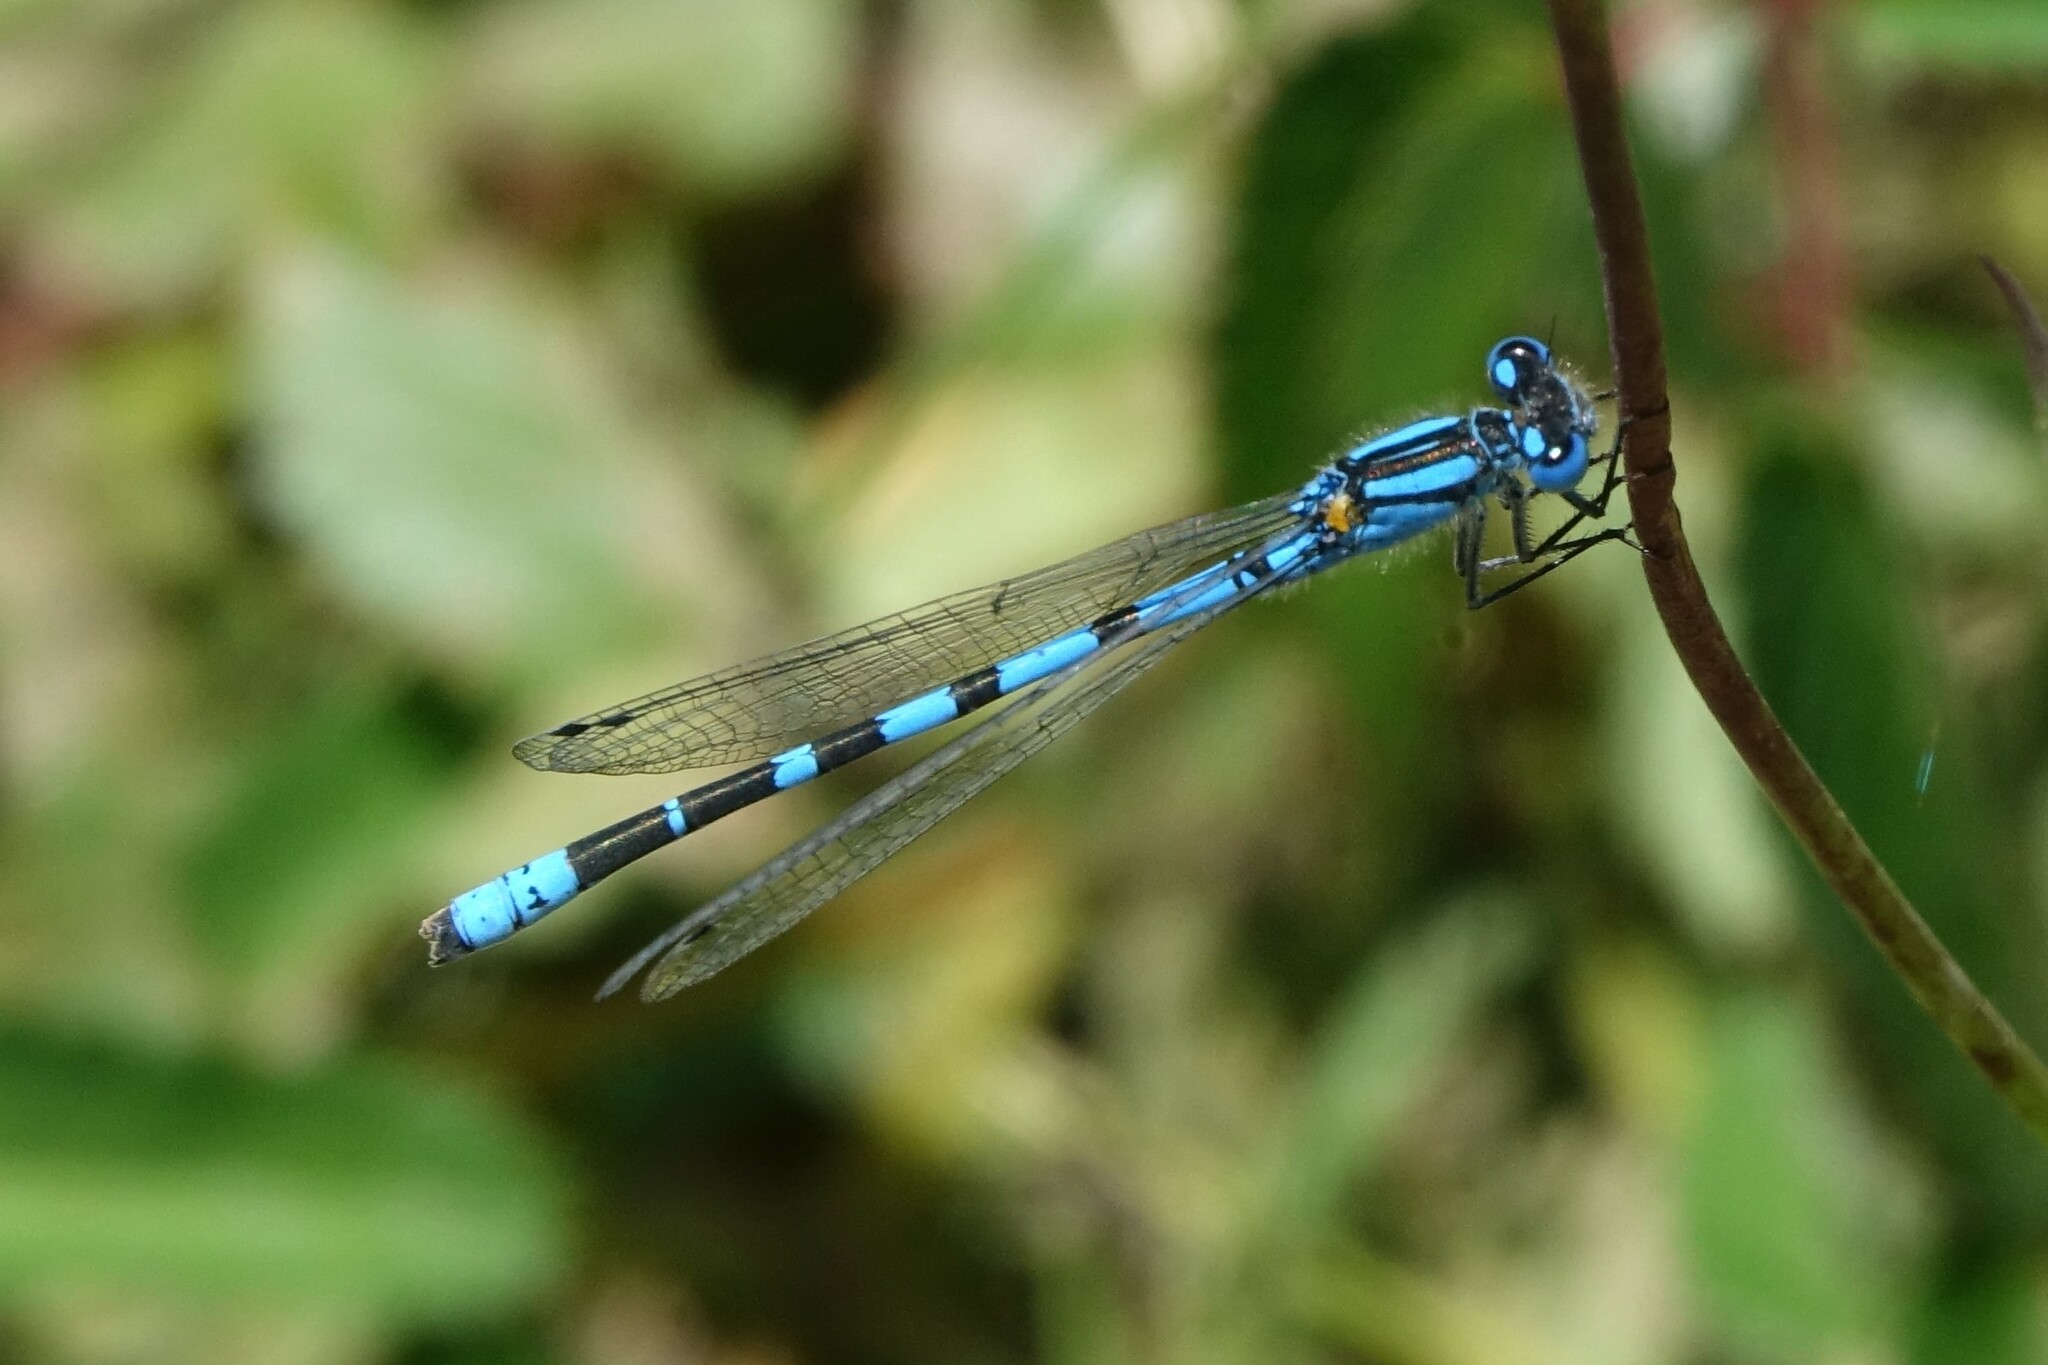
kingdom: Animalia
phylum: Arthropoda
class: Insecta
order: Odonata
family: Coenagrionidae
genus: Enallagma
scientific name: Enallagma cyathigerum
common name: Common blue damselfly
